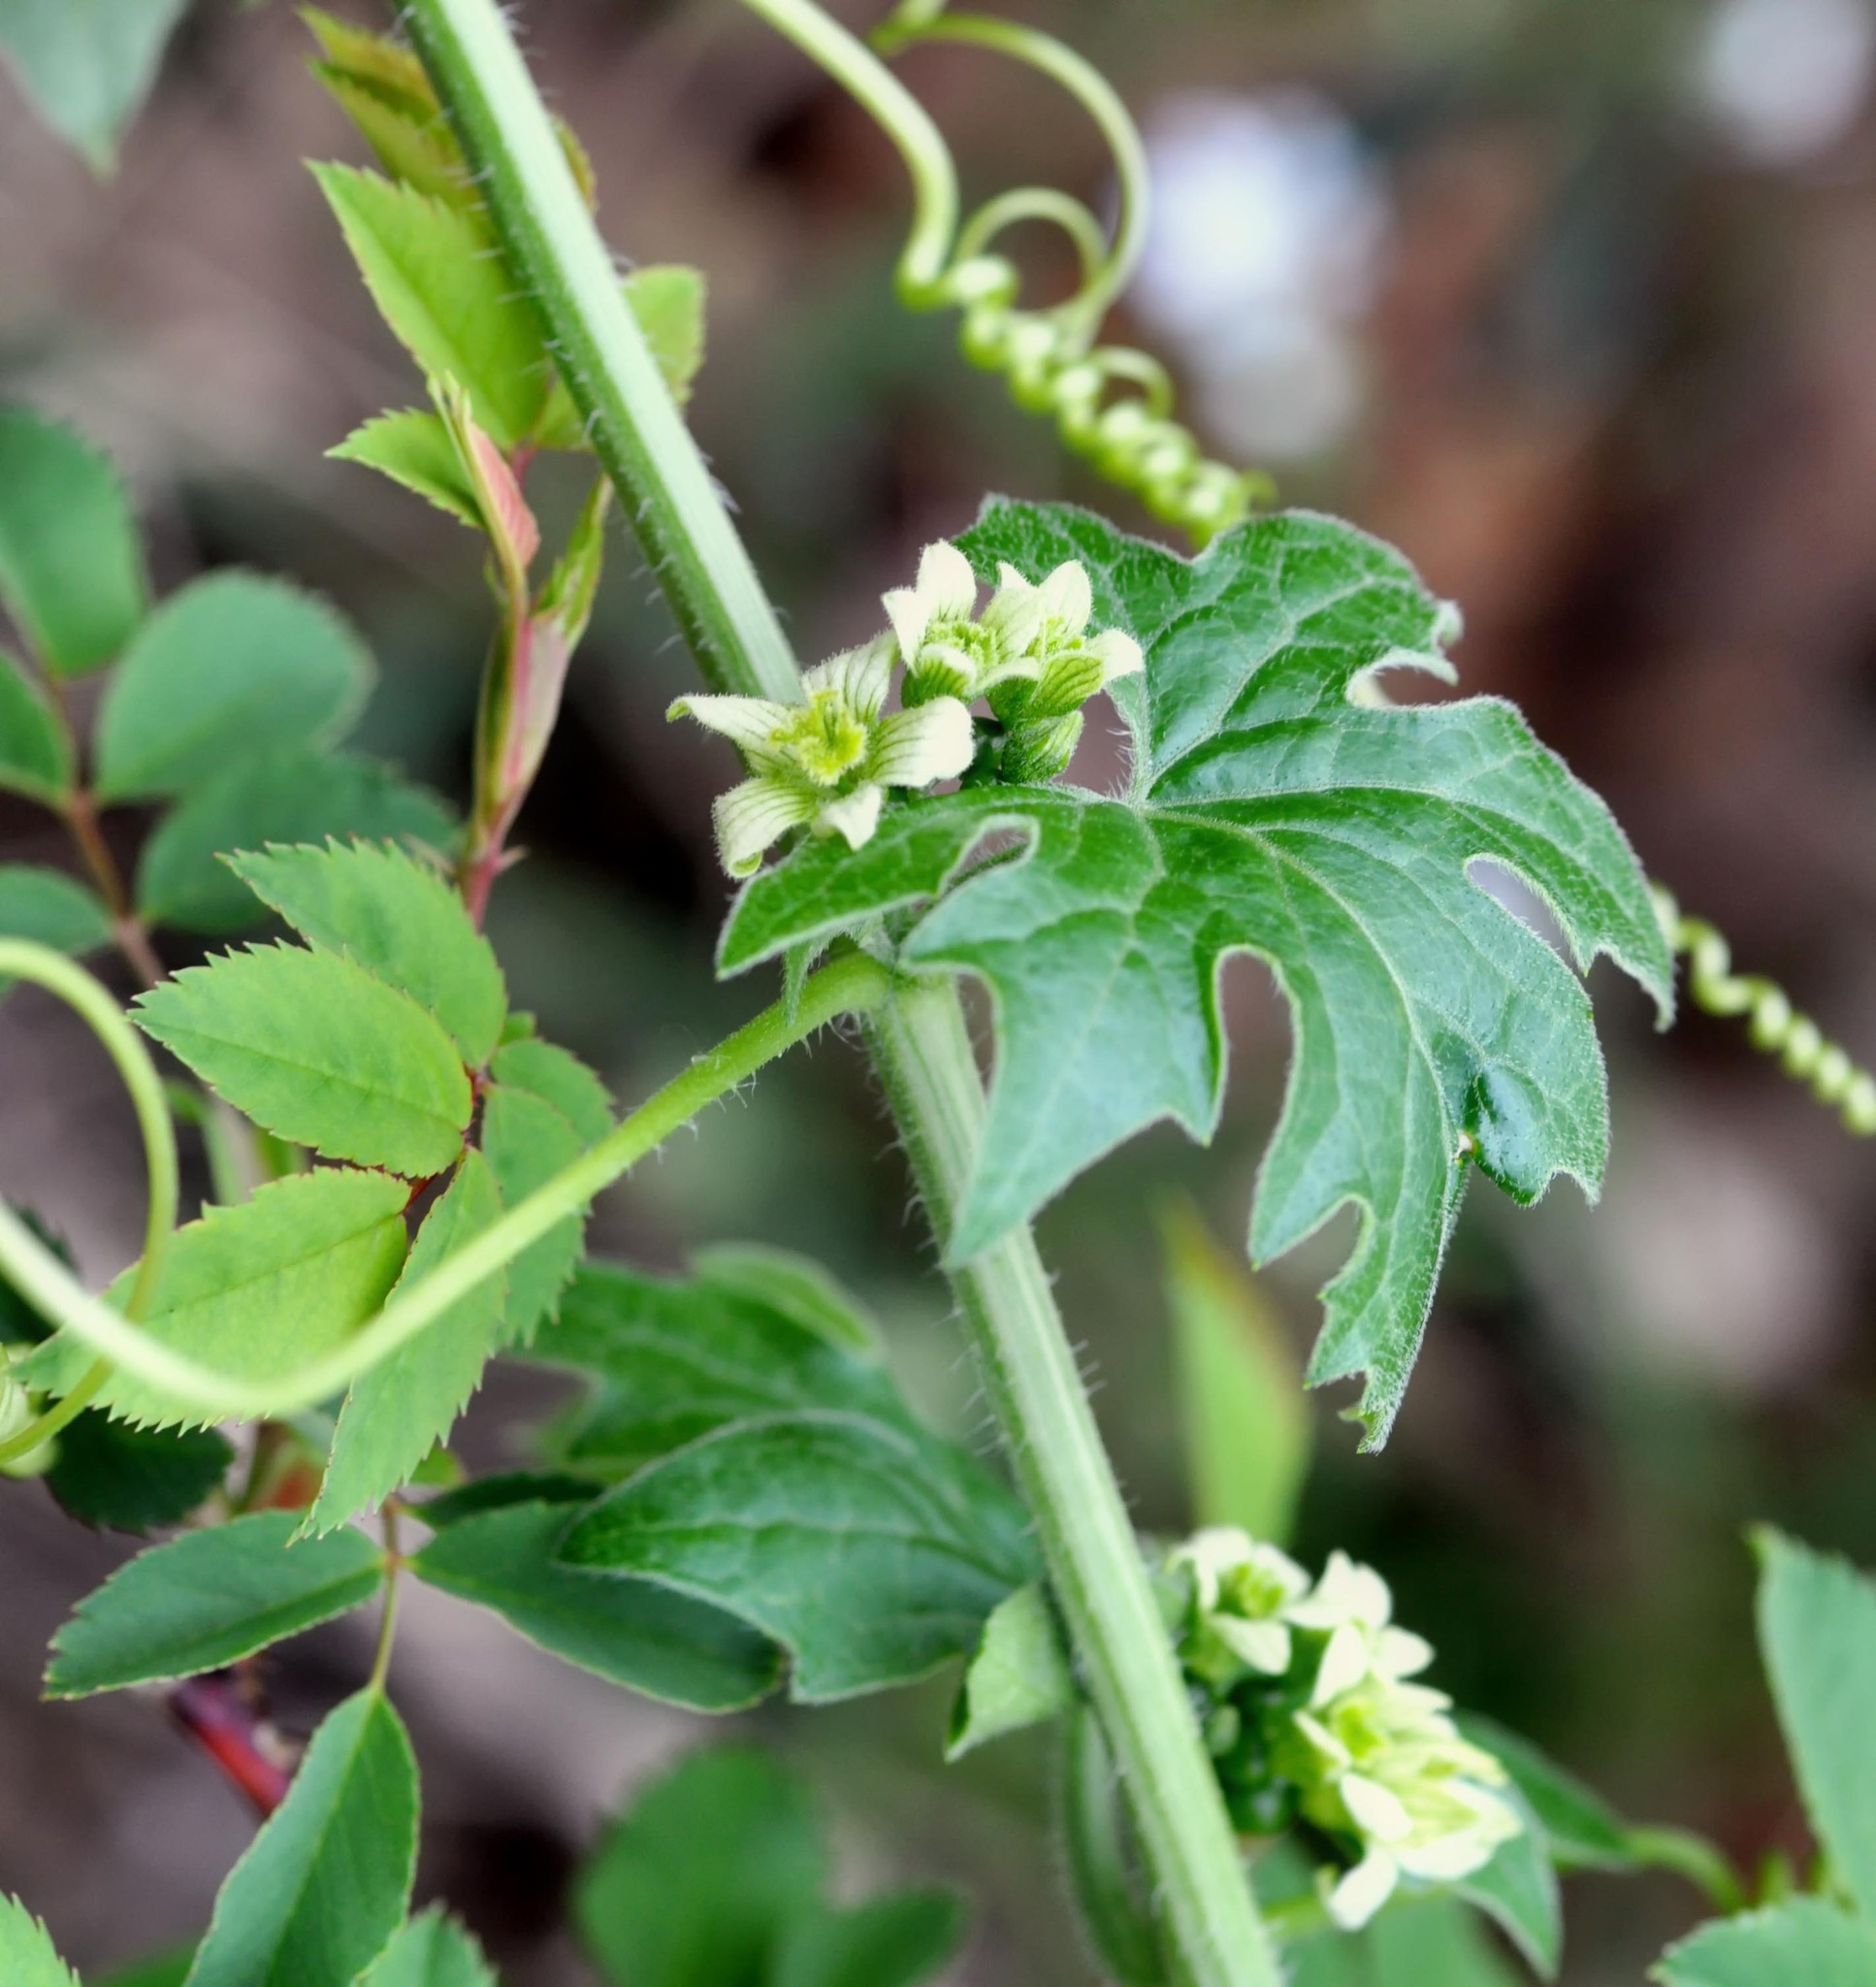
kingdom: Plantae
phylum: Tracheophyta
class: Magnoliopsida
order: Cucurbitales
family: Cucurbitaceae
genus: Bryonia
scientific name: Bryonia dioica
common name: White bryony
